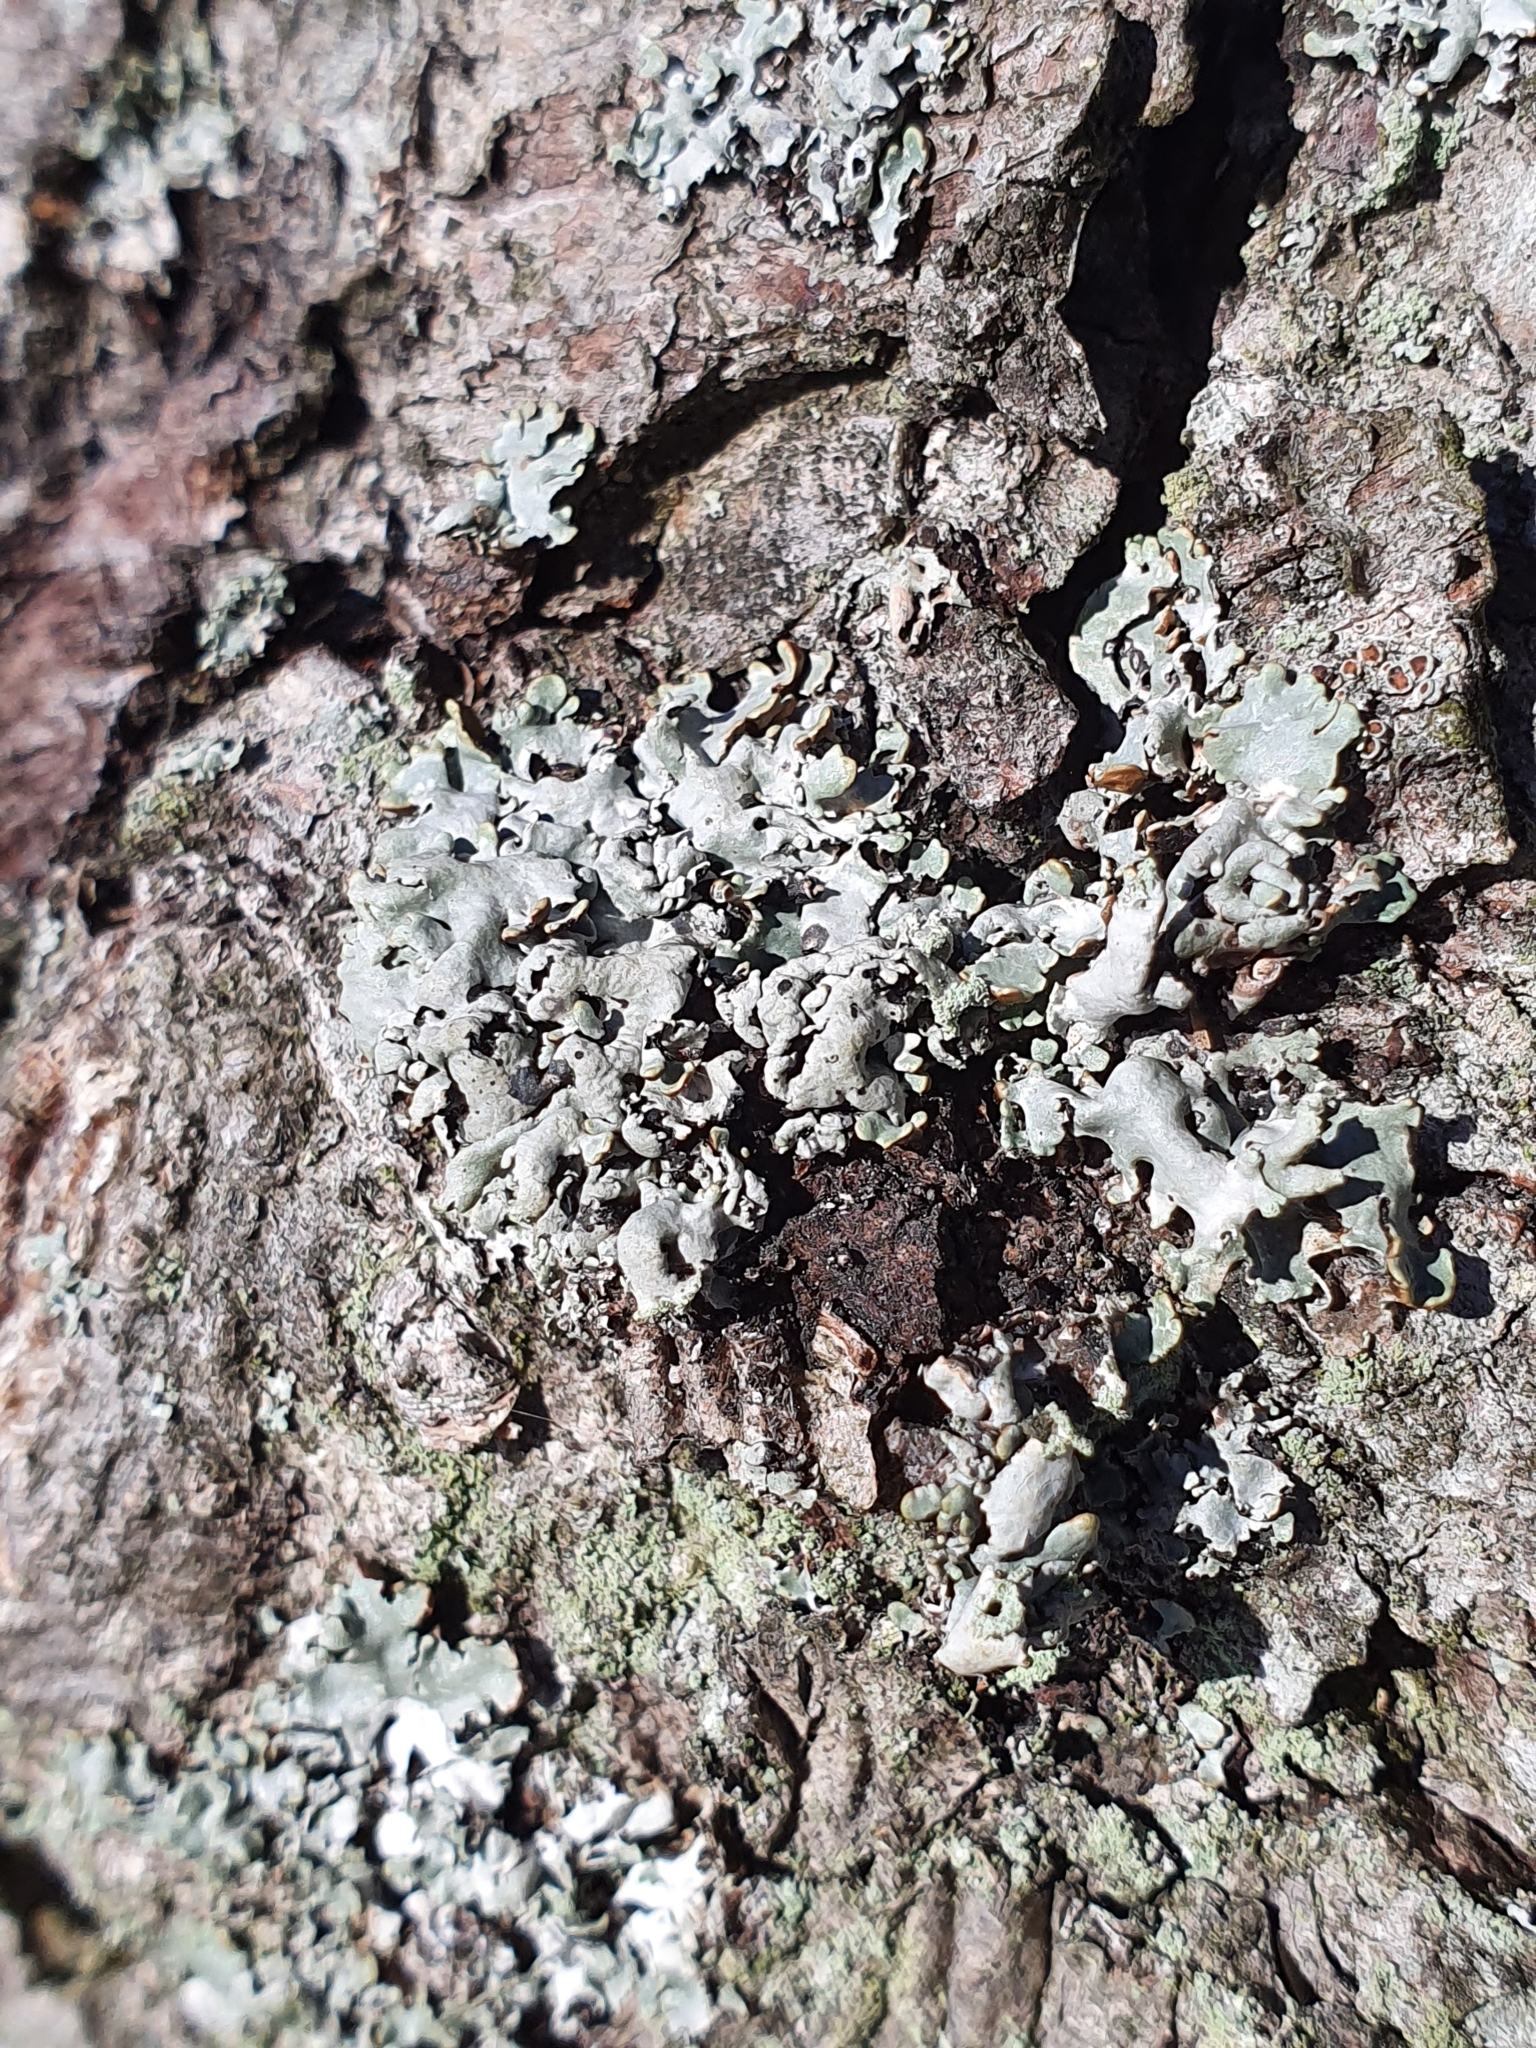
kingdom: Fungi
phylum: Ascomycota
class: Lecanoromycetes
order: Lecanorales
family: Parmeliaceae
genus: Hypogymnia
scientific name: Hypogymnia physodes
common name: Dark crottle
